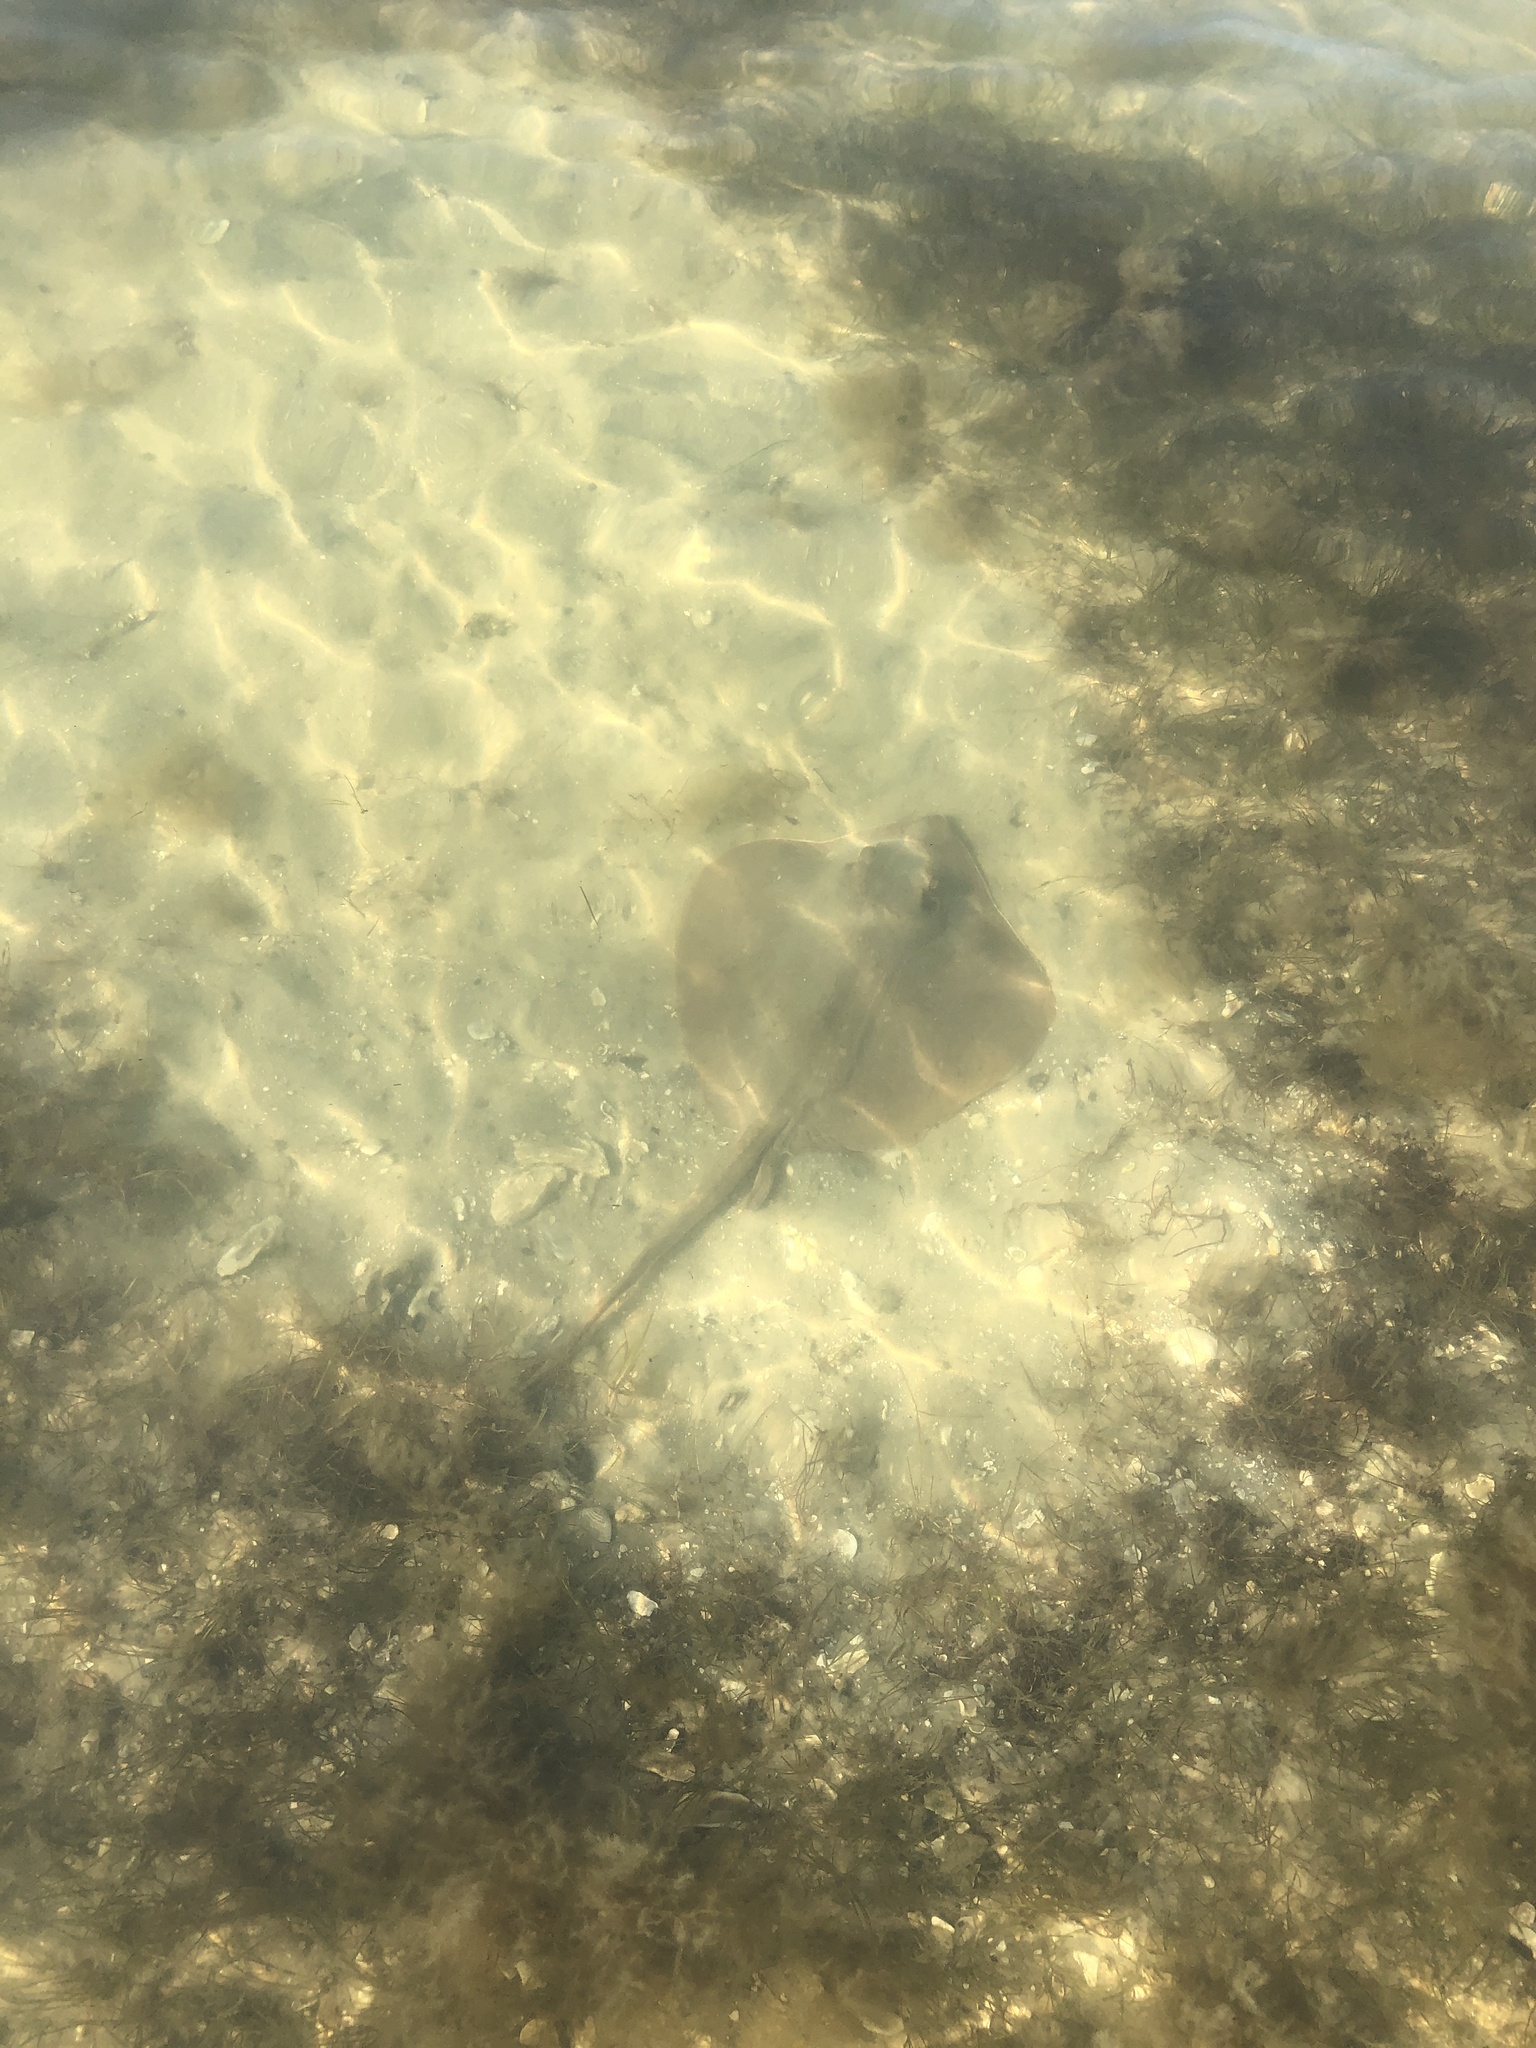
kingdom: Animalia
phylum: Chordata
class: Elasmobranchii
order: Myliobatiformes
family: Dasyatidae
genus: Hypanus
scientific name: Hypanus sabinus
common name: Atlantic stingray
